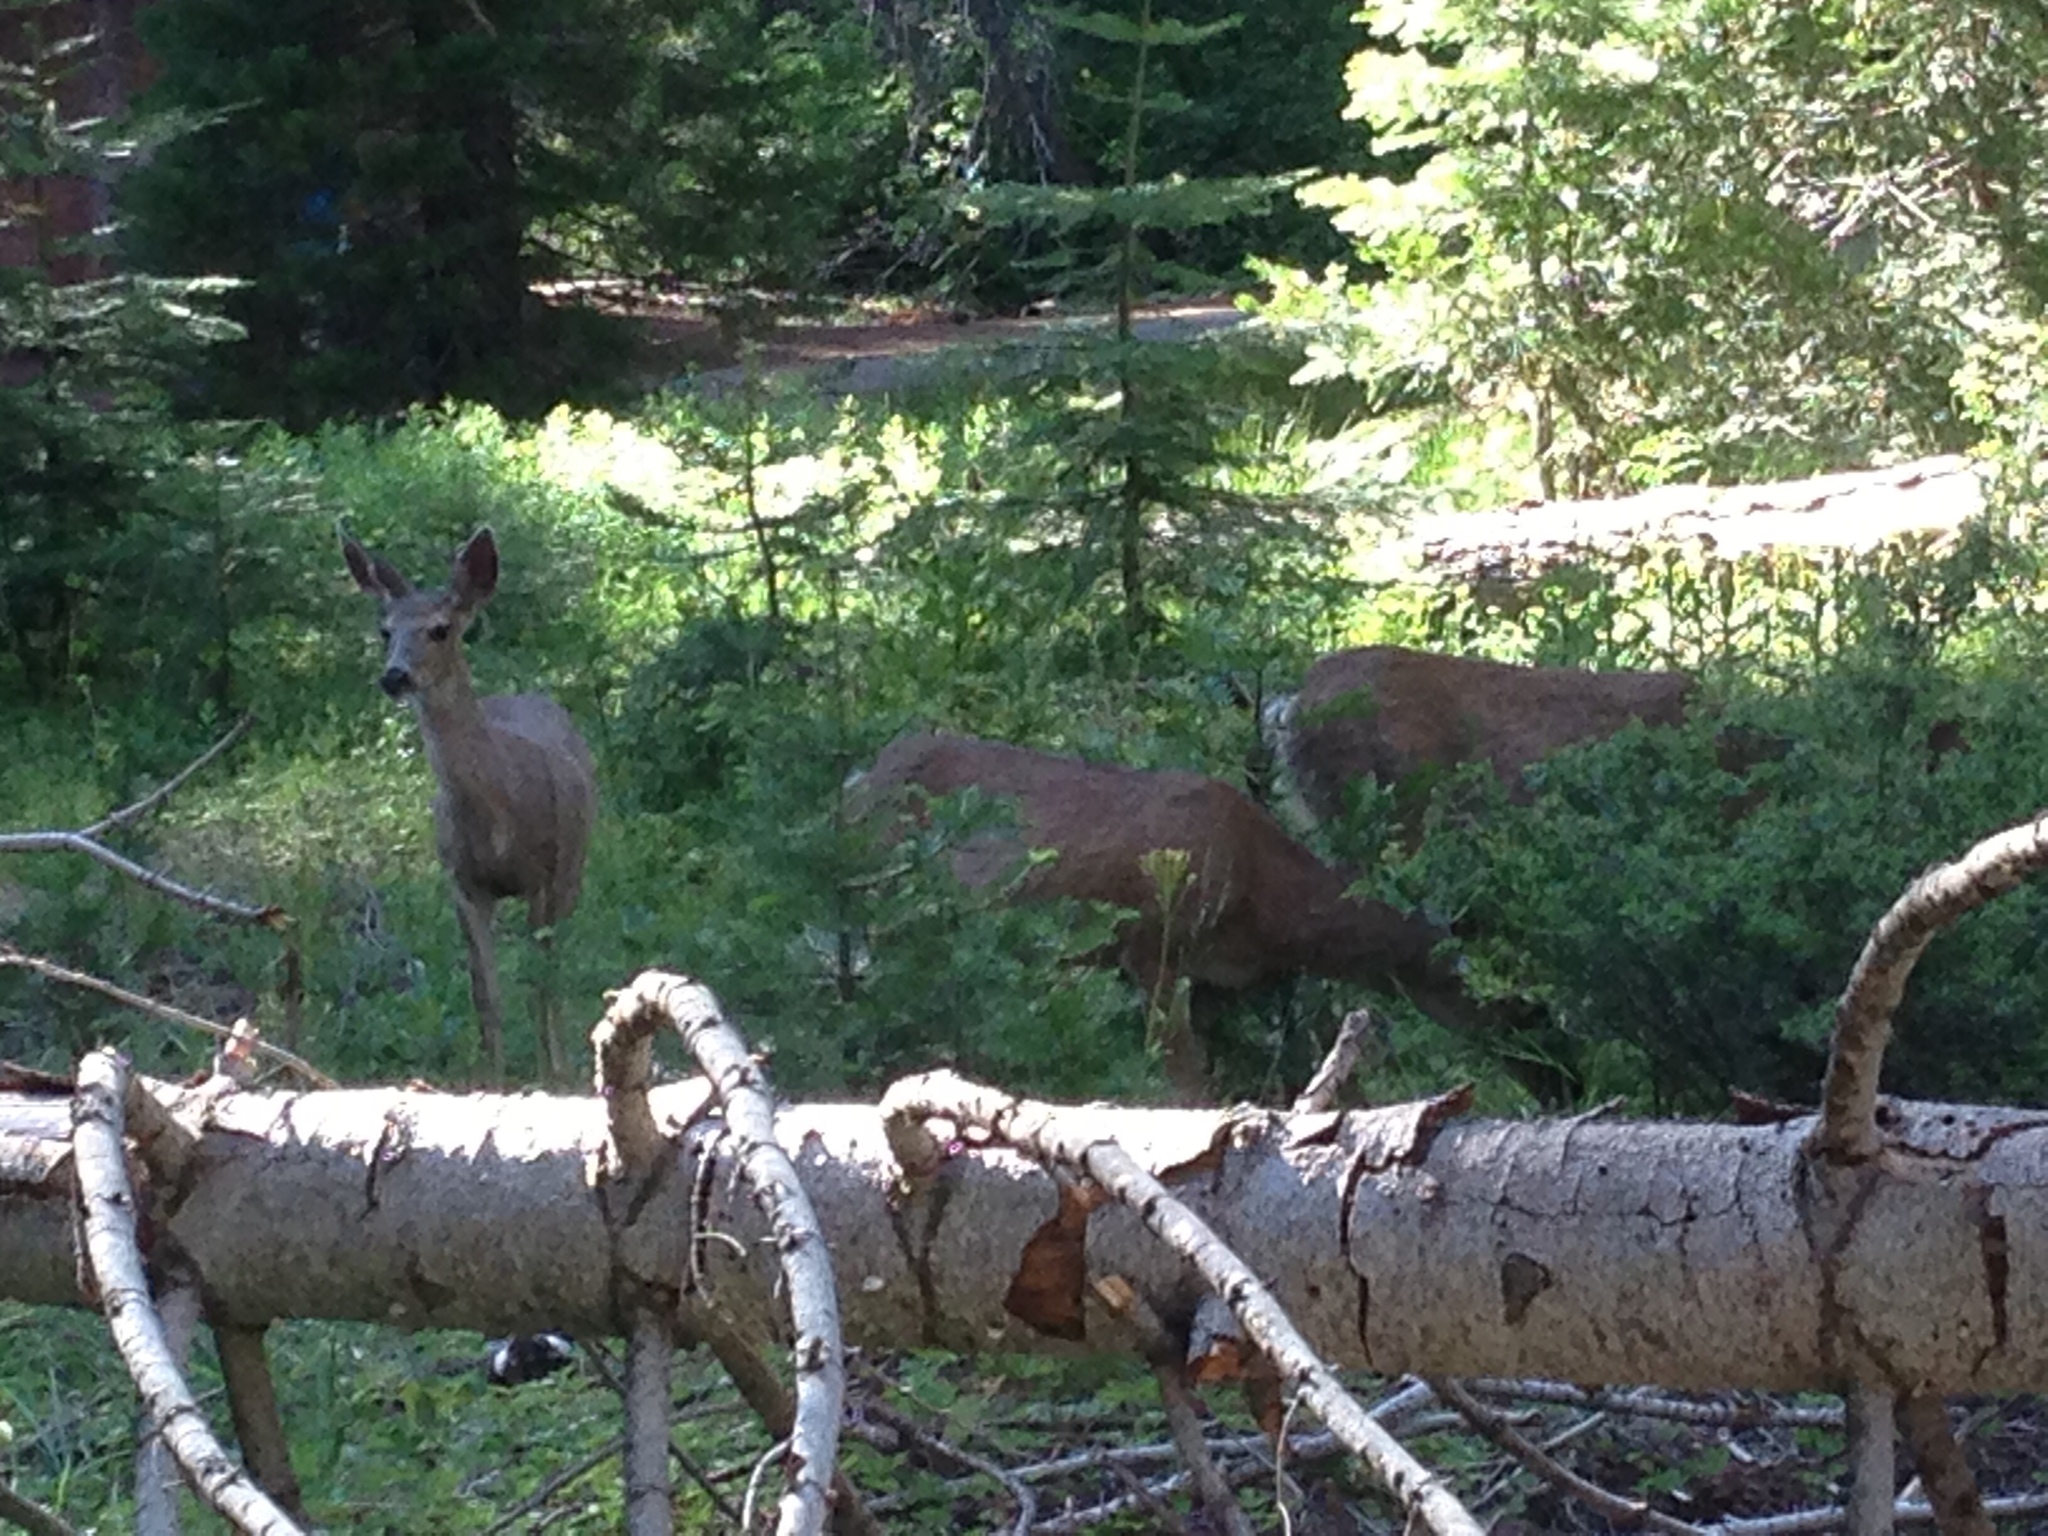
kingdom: Animalia
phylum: Chordata
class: Mammalia
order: Artiodactyla
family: Cervidae
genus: Odocoileus
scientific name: Odocoileus hemionus
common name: Mule deer
